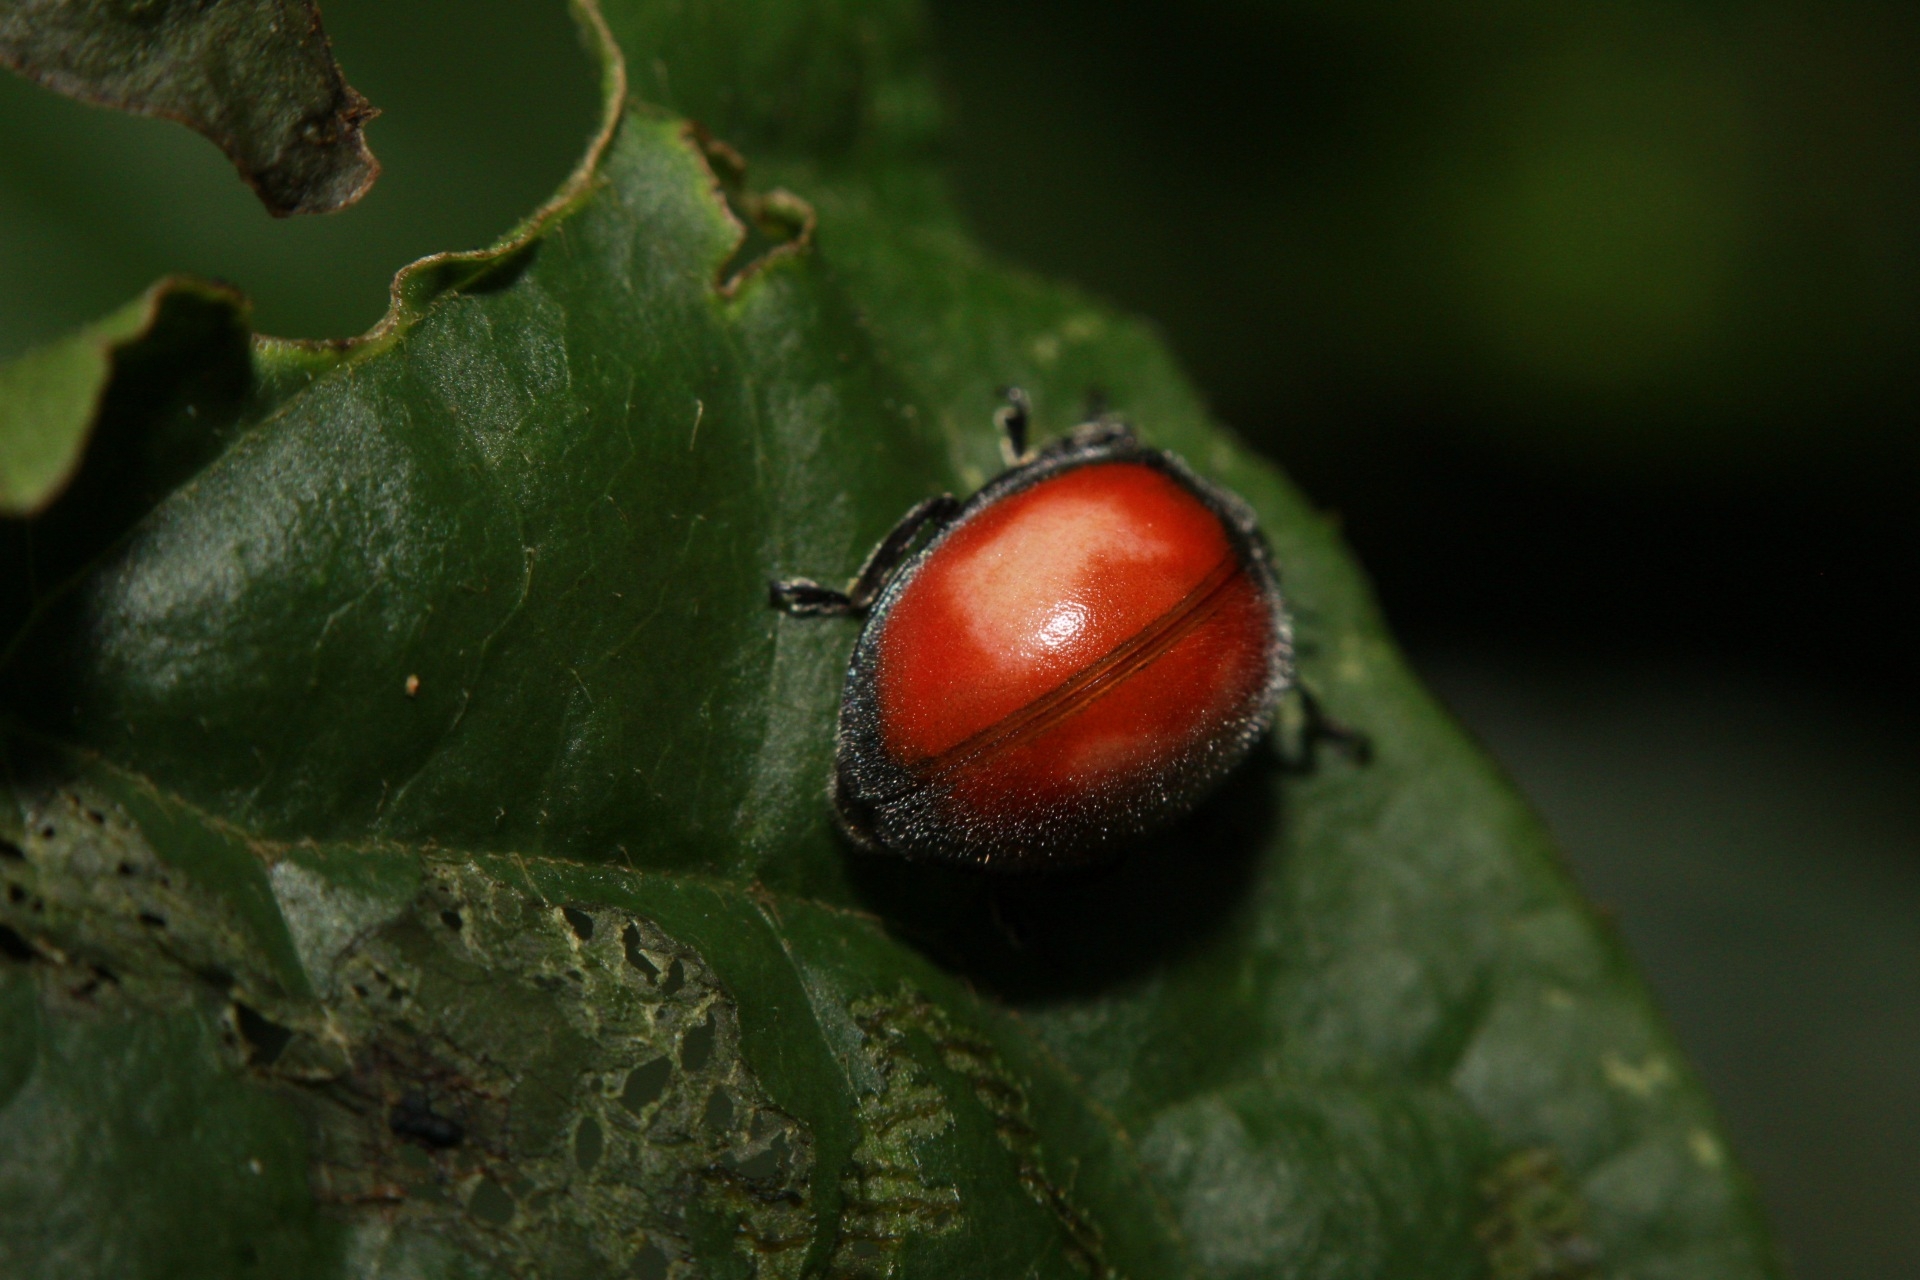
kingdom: Animalia
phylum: Arthropoda
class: Insecta
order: Coleoptera
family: Coccinellidae
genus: Epilachna
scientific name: Epilachna discolor
